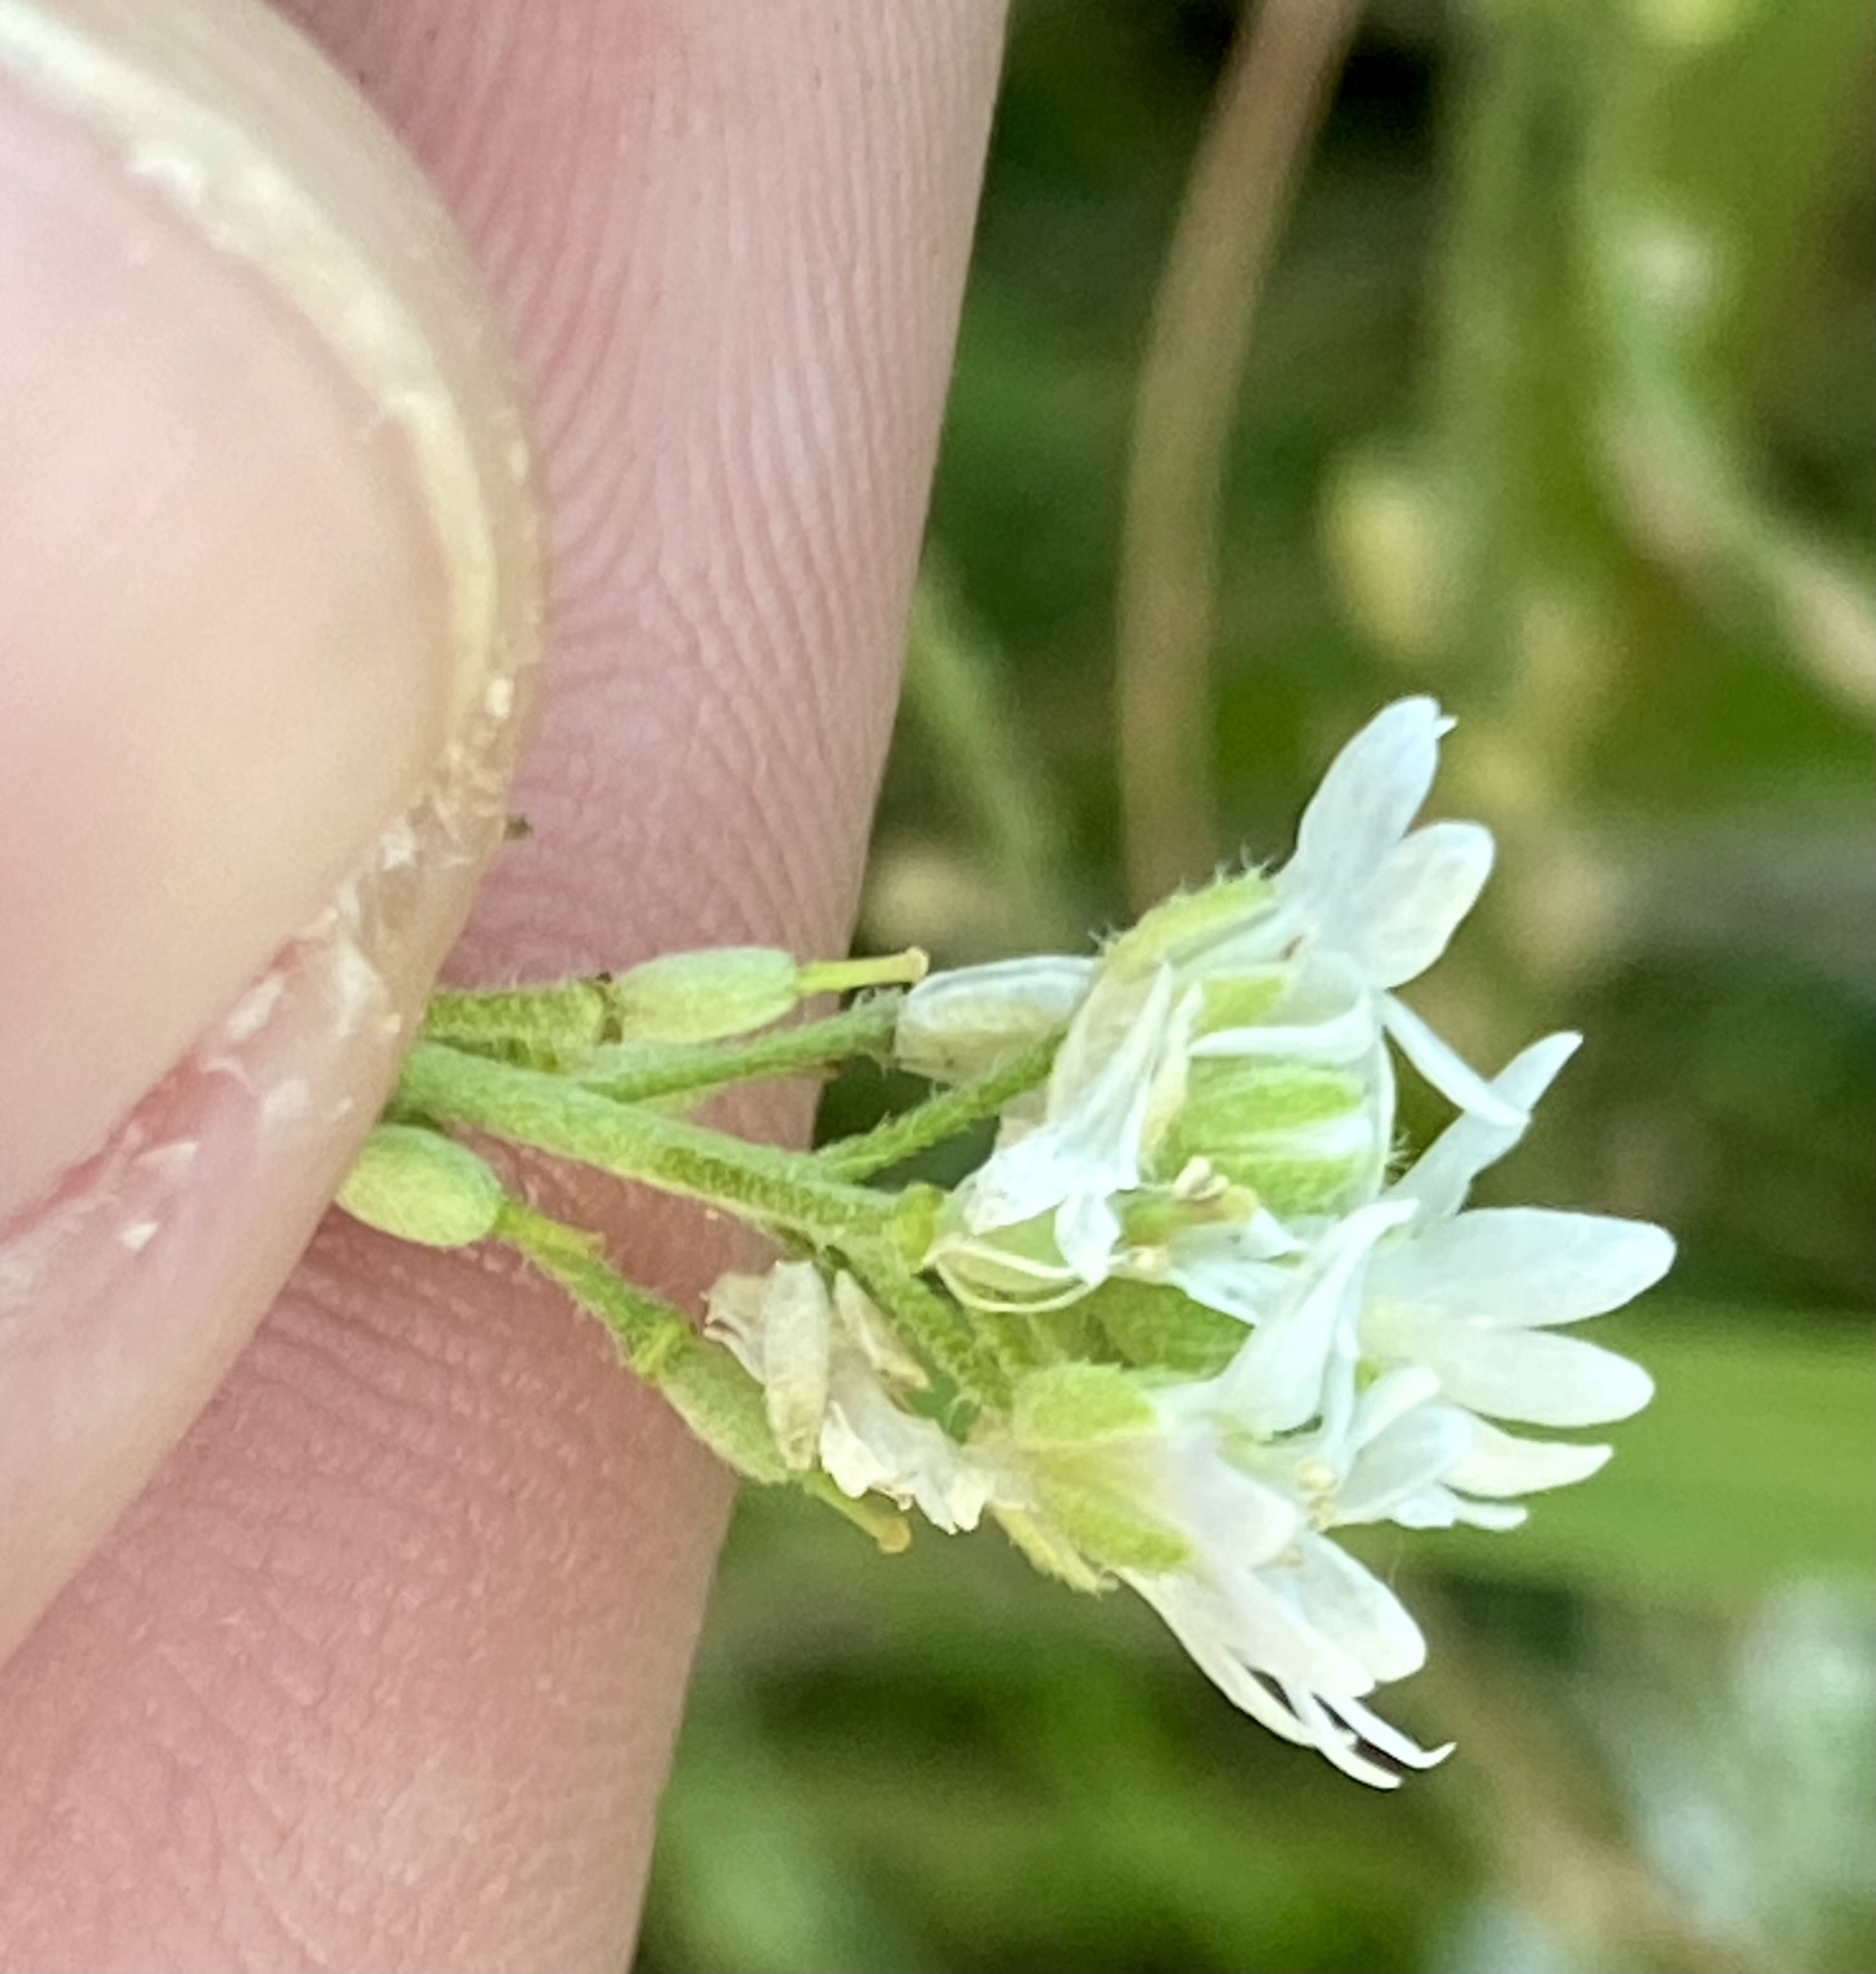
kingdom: Plantae
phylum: Tracheophyta
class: Magnoliopsida
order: Brassicales
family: Brassicaceae
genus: Berteroa
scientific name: Berteroa incana
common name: Hoary alison
